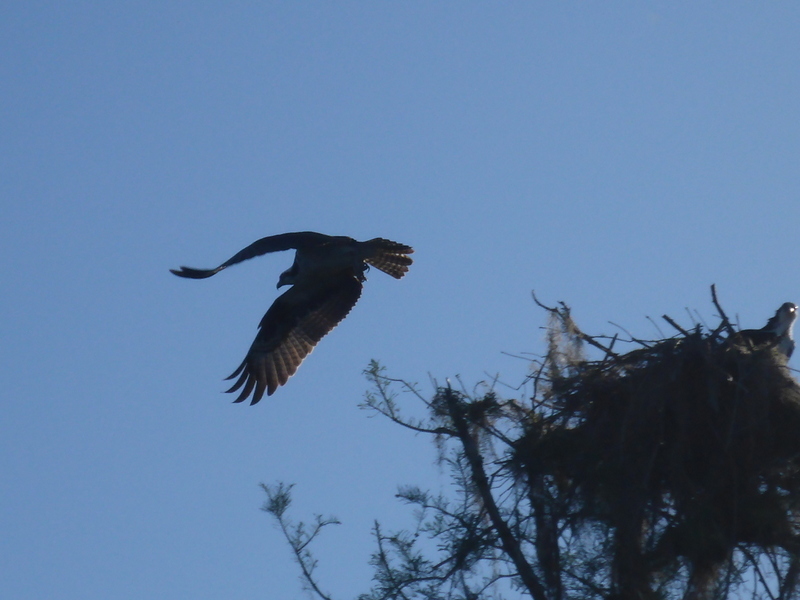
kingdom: Animalia
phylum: Chordata
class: Aves
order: Accipitriformes
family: Pandionidae
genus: Pandion
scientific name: Pandion haliaetus
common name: Osprey
